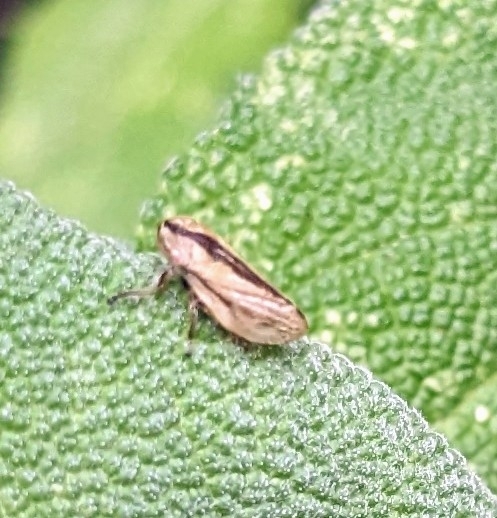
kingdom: Animalia
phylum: Arthropoda
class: Insecta
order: Hemiptera
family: Aphrophoridae
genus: Philaenus
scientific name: Philaenus spumarius
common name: Meadow spittlebug
